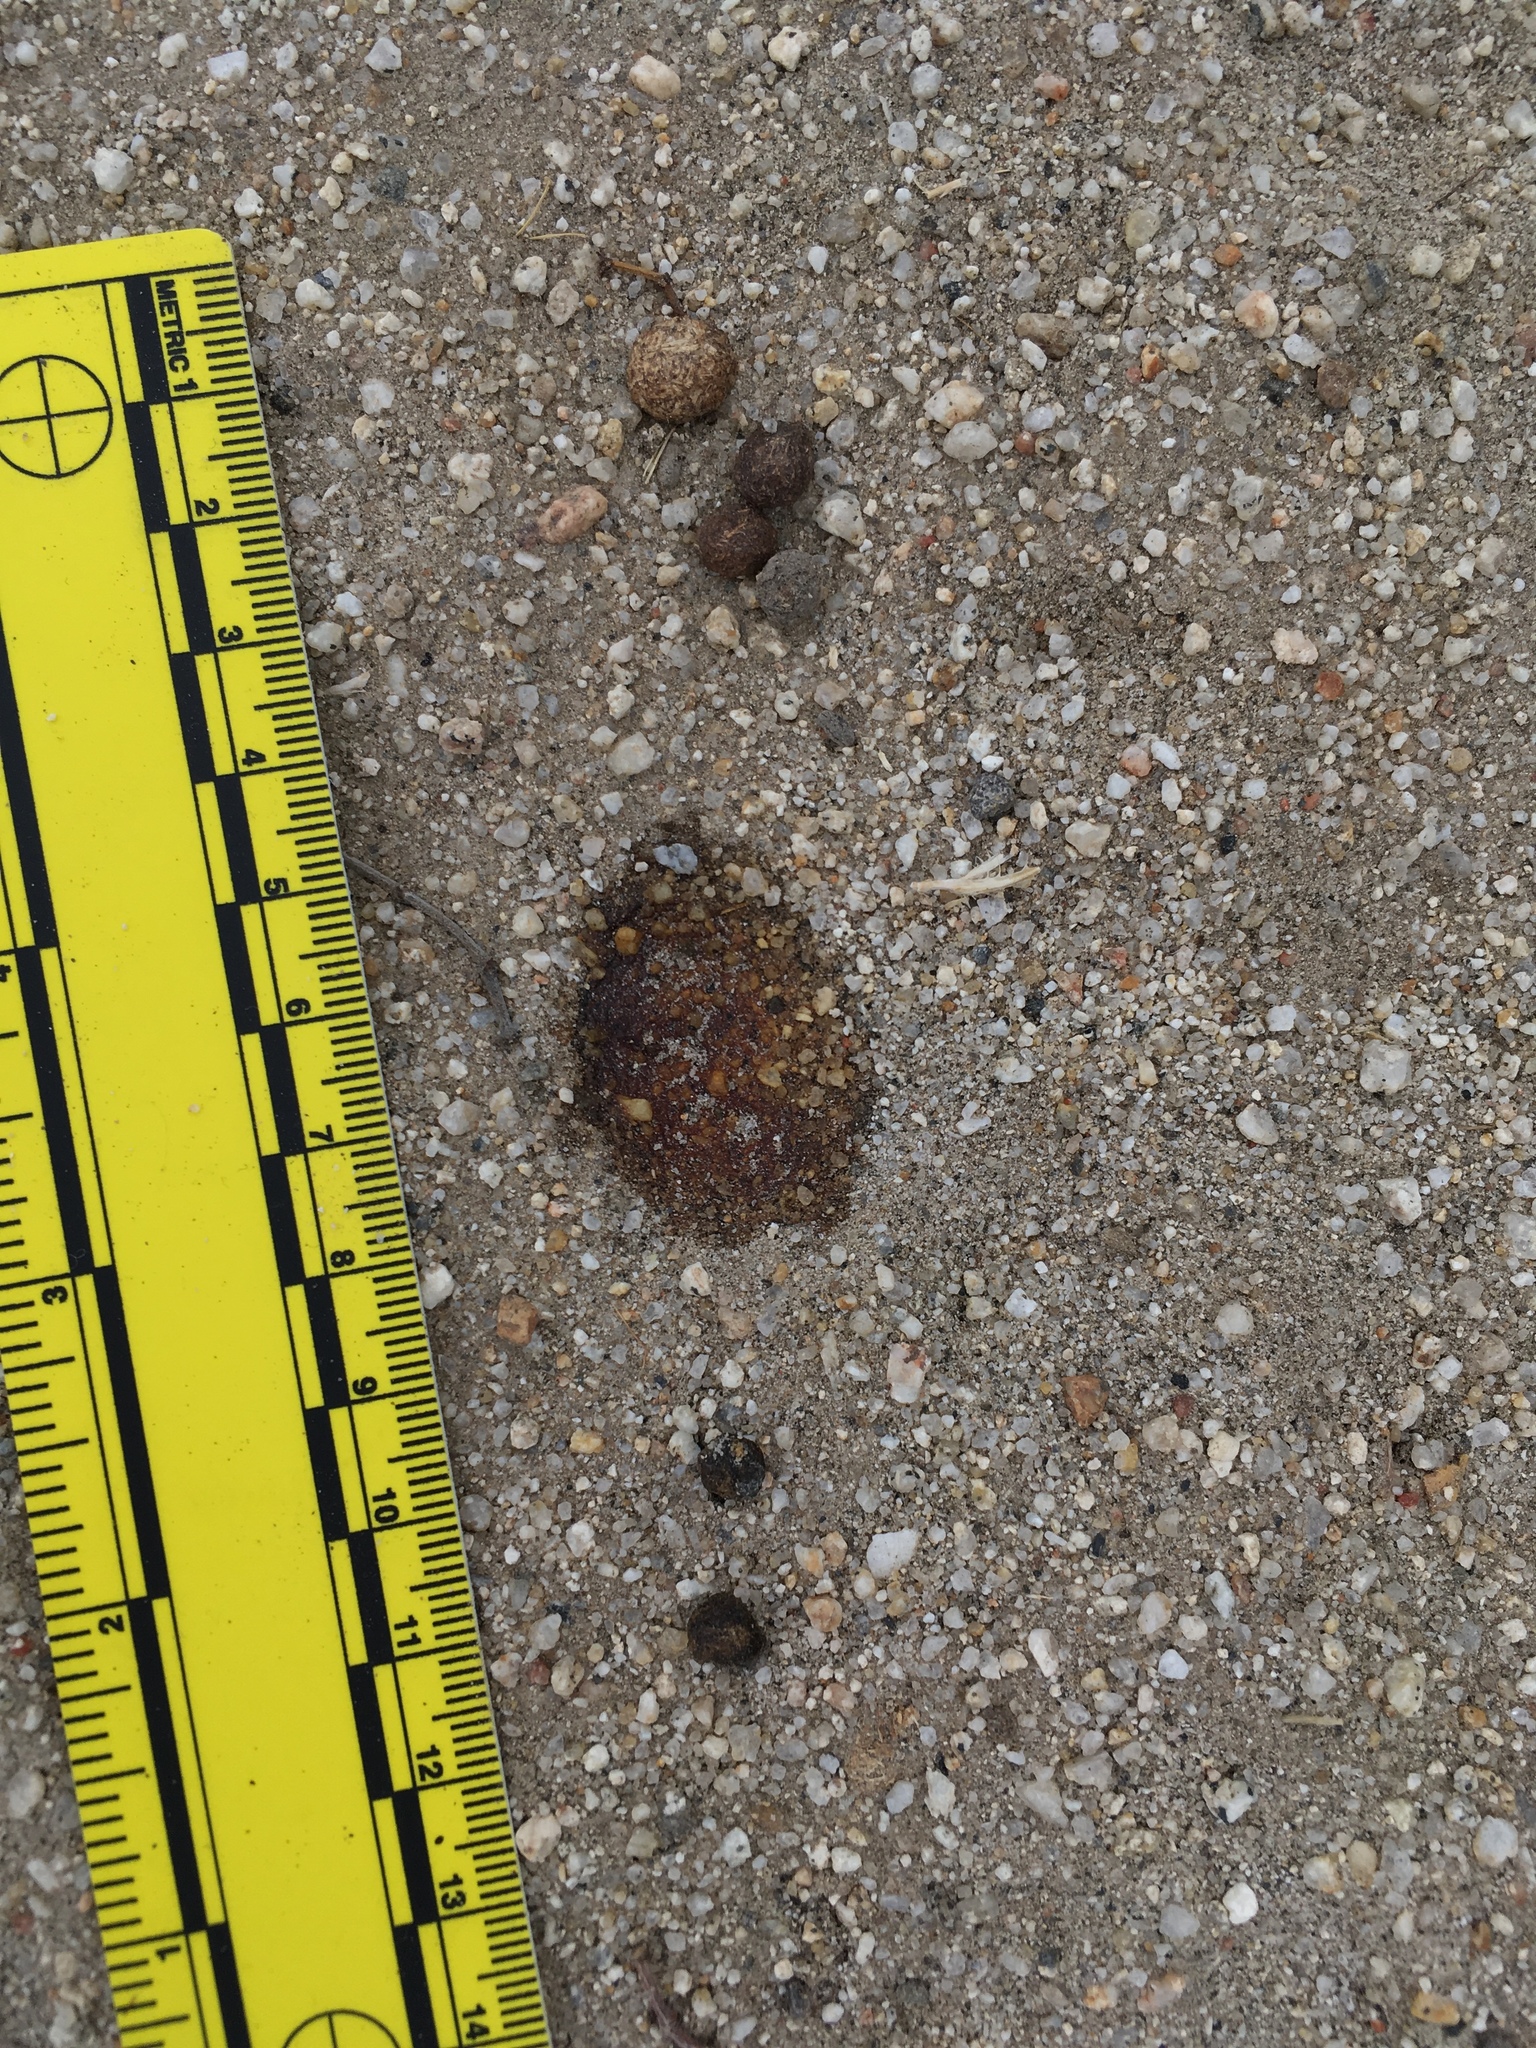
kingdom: Animalia
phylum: Chordata
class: Mammalia
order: Lagomorpha
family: Leporidae
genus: Sylvilagus
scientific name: Sylvilagus audubonii
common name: Desert cottontail
